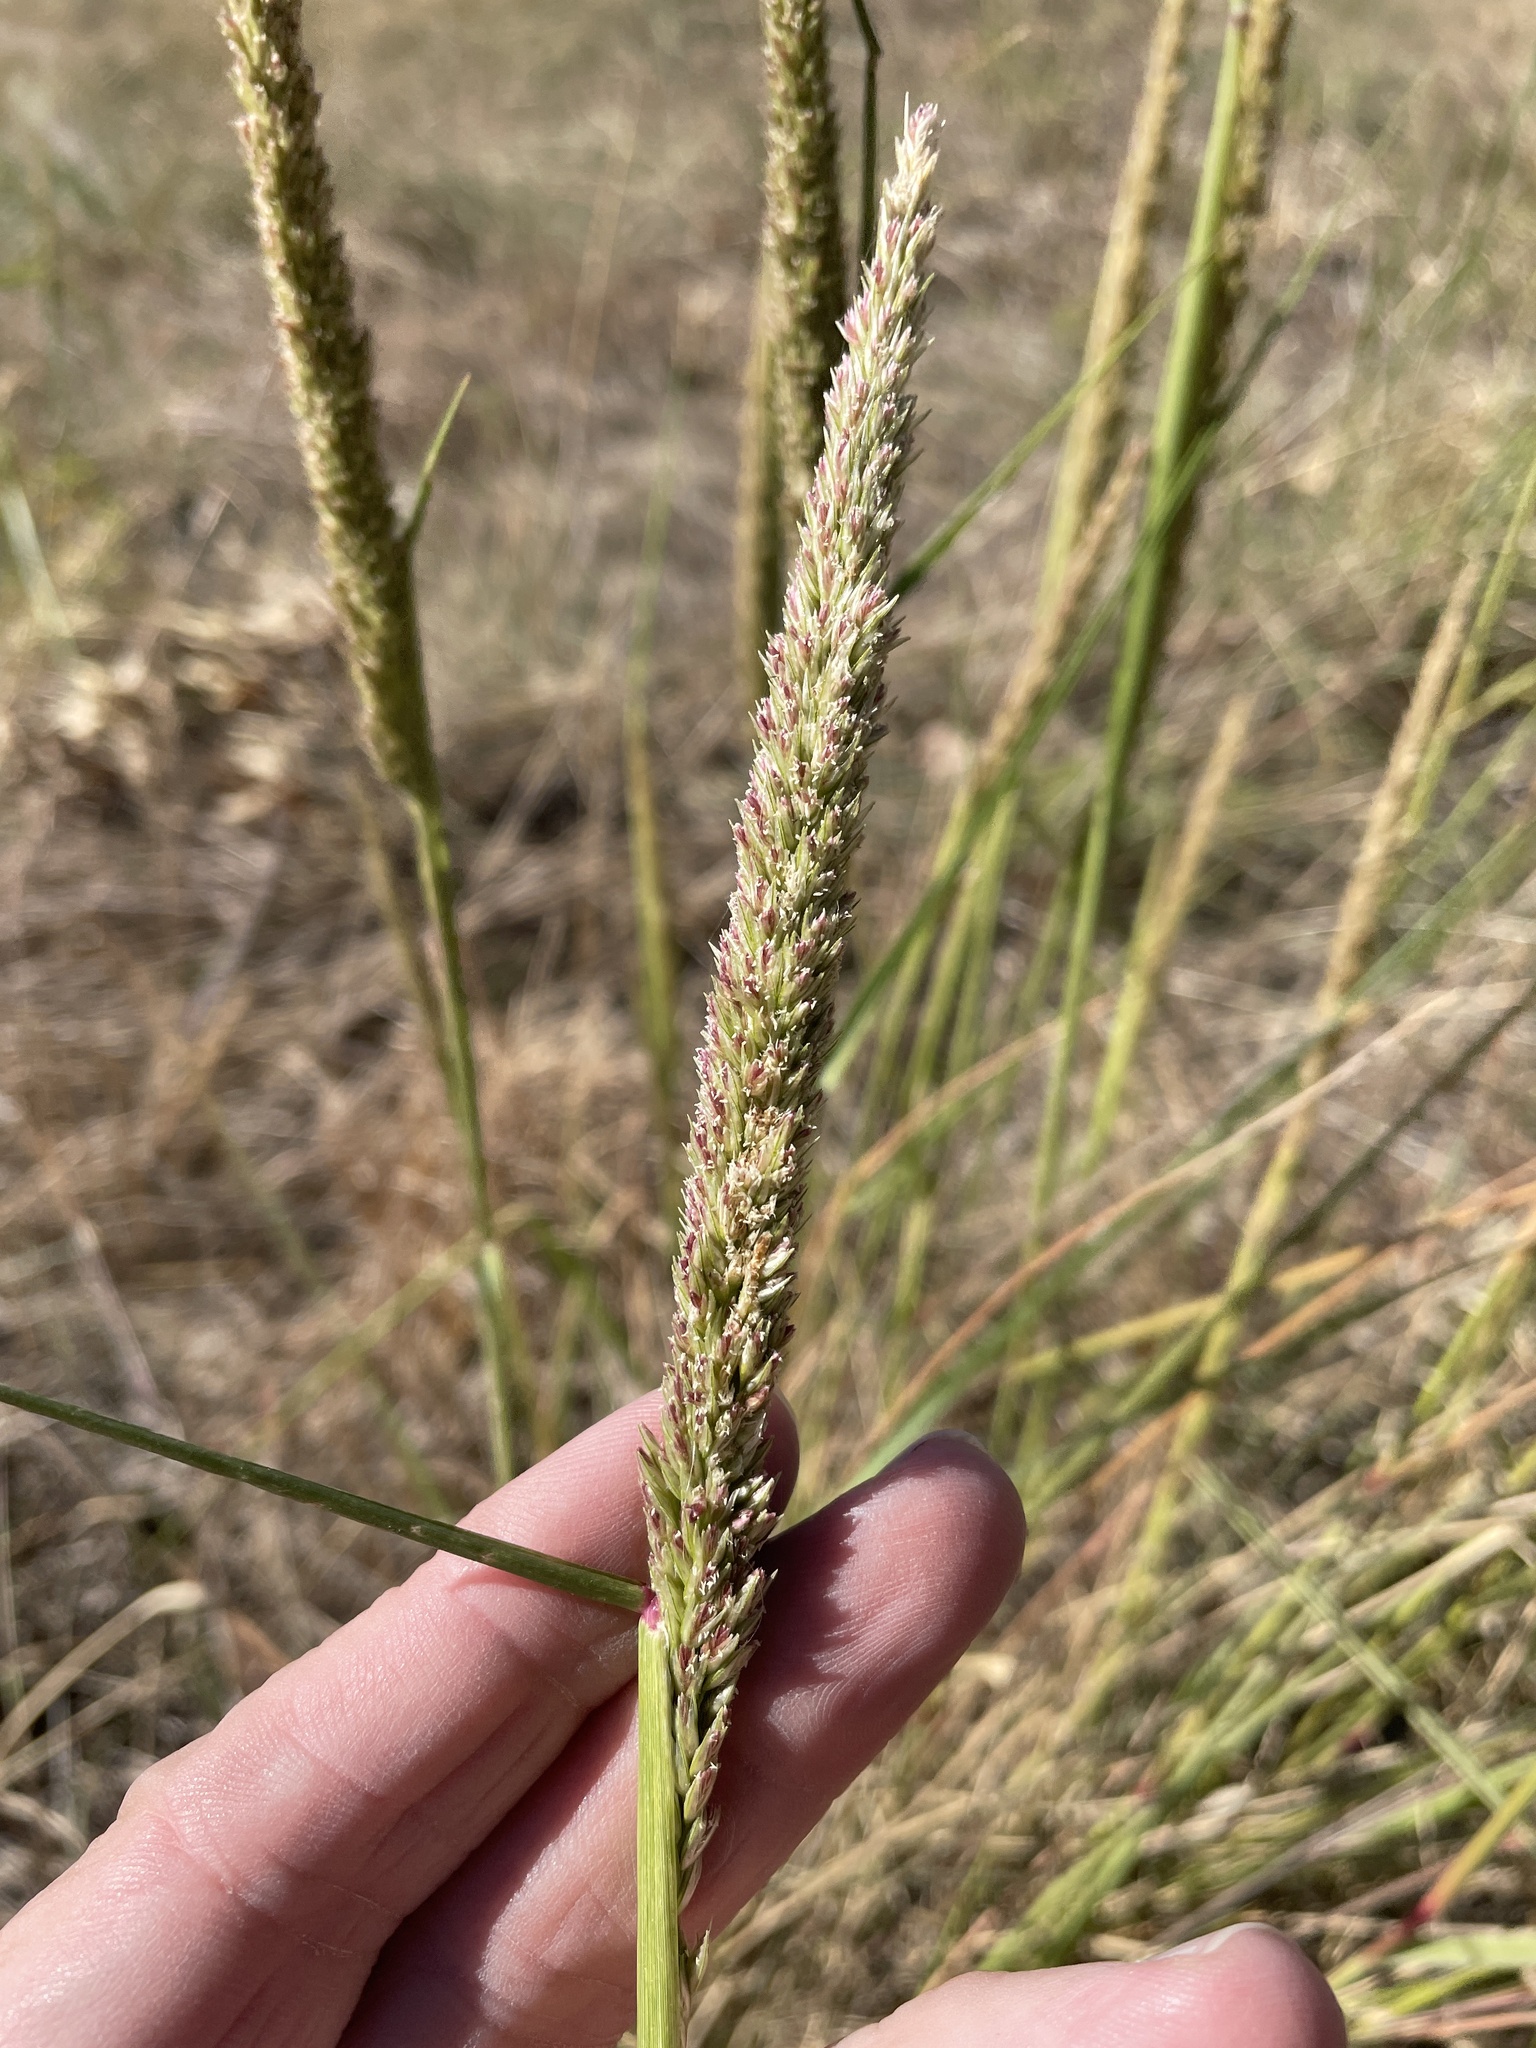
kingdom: Plantae
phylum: Tracheophyta
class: Liliopsida
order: Poales
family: Poaceae
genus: Tridens
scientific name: Tridens strictus
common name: Long-spike tridens
